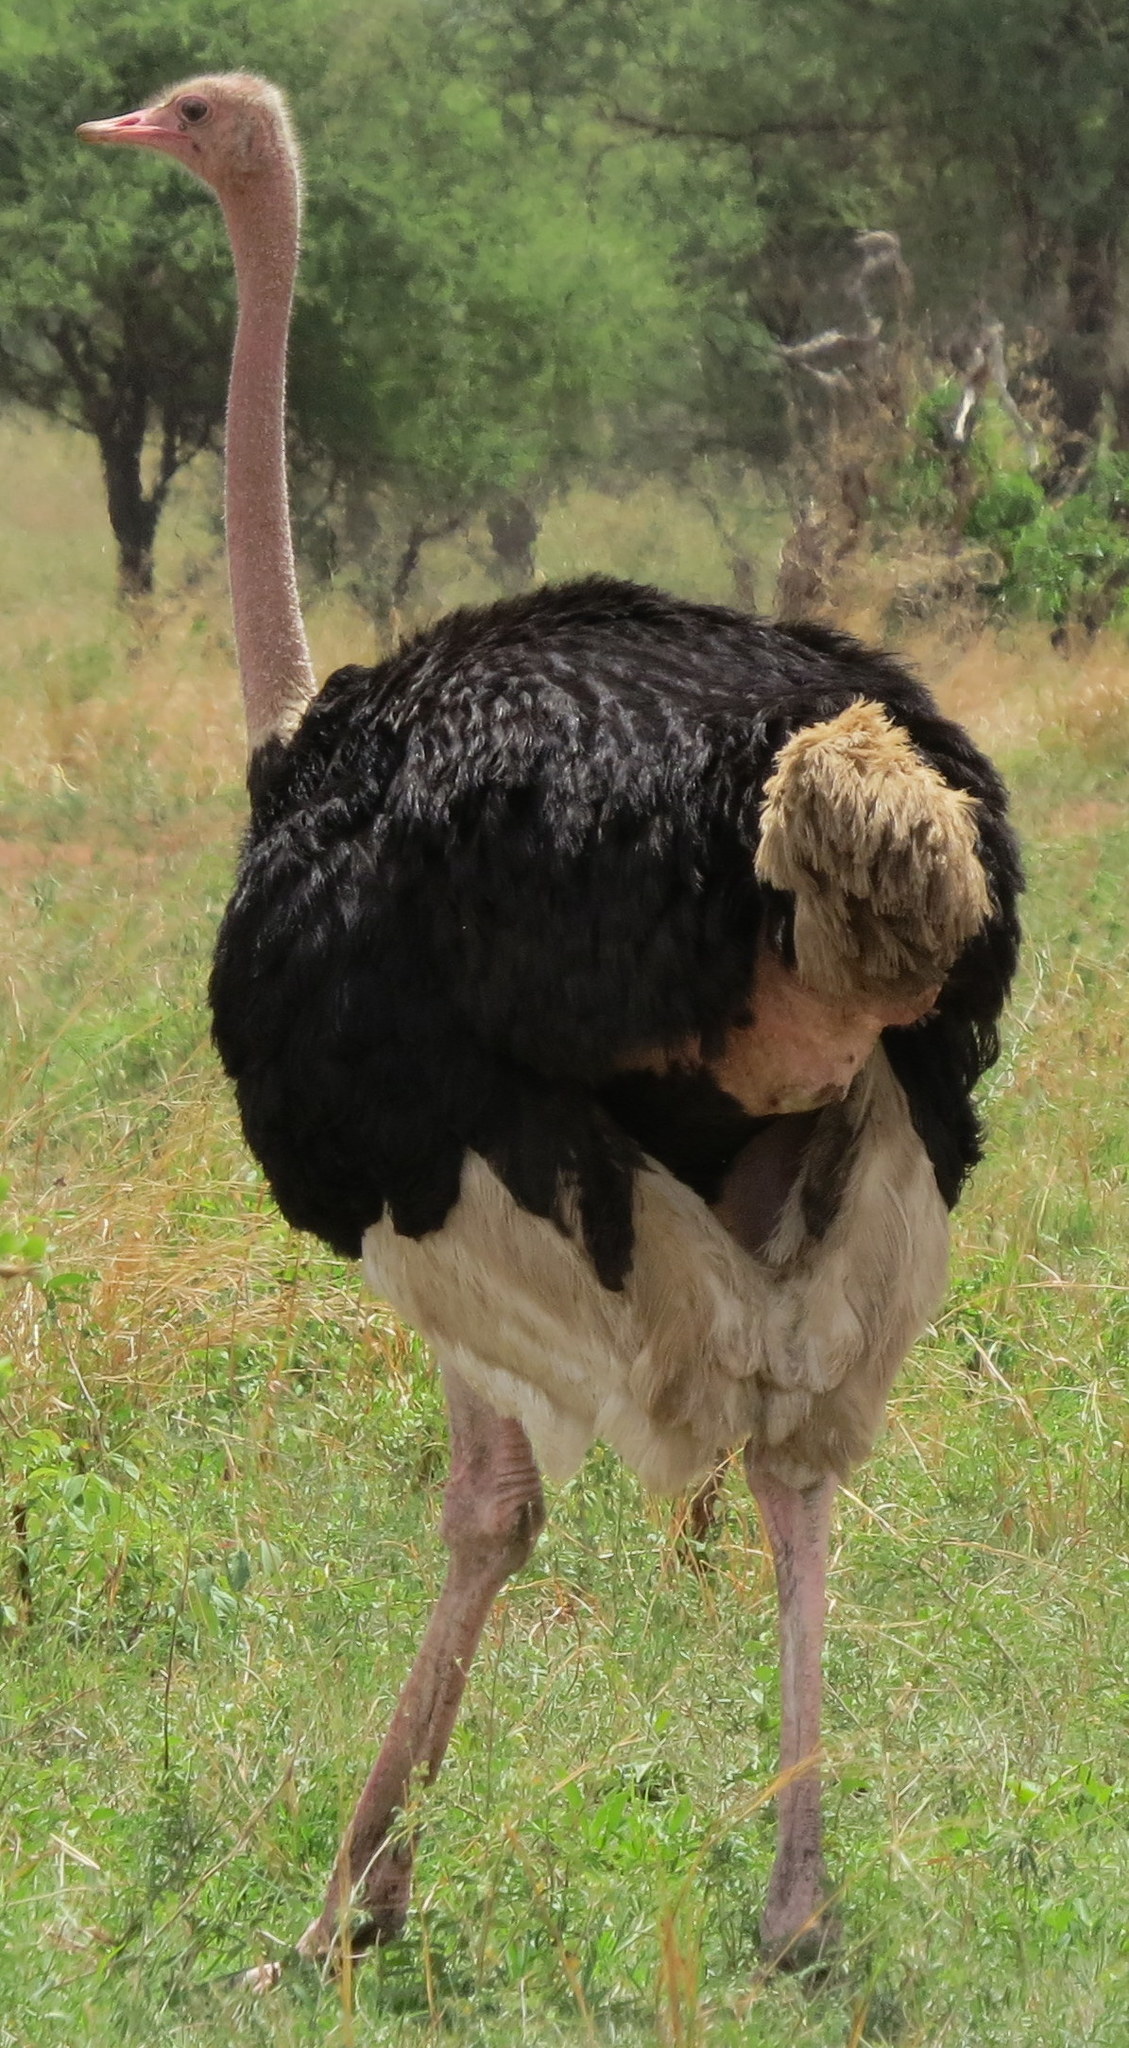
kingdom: Animalia
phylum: Chordata
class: Aves
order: Struthioniformes
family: Struthionidae
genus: Struthio
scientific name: Struthio camelus
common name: Common ostrich
